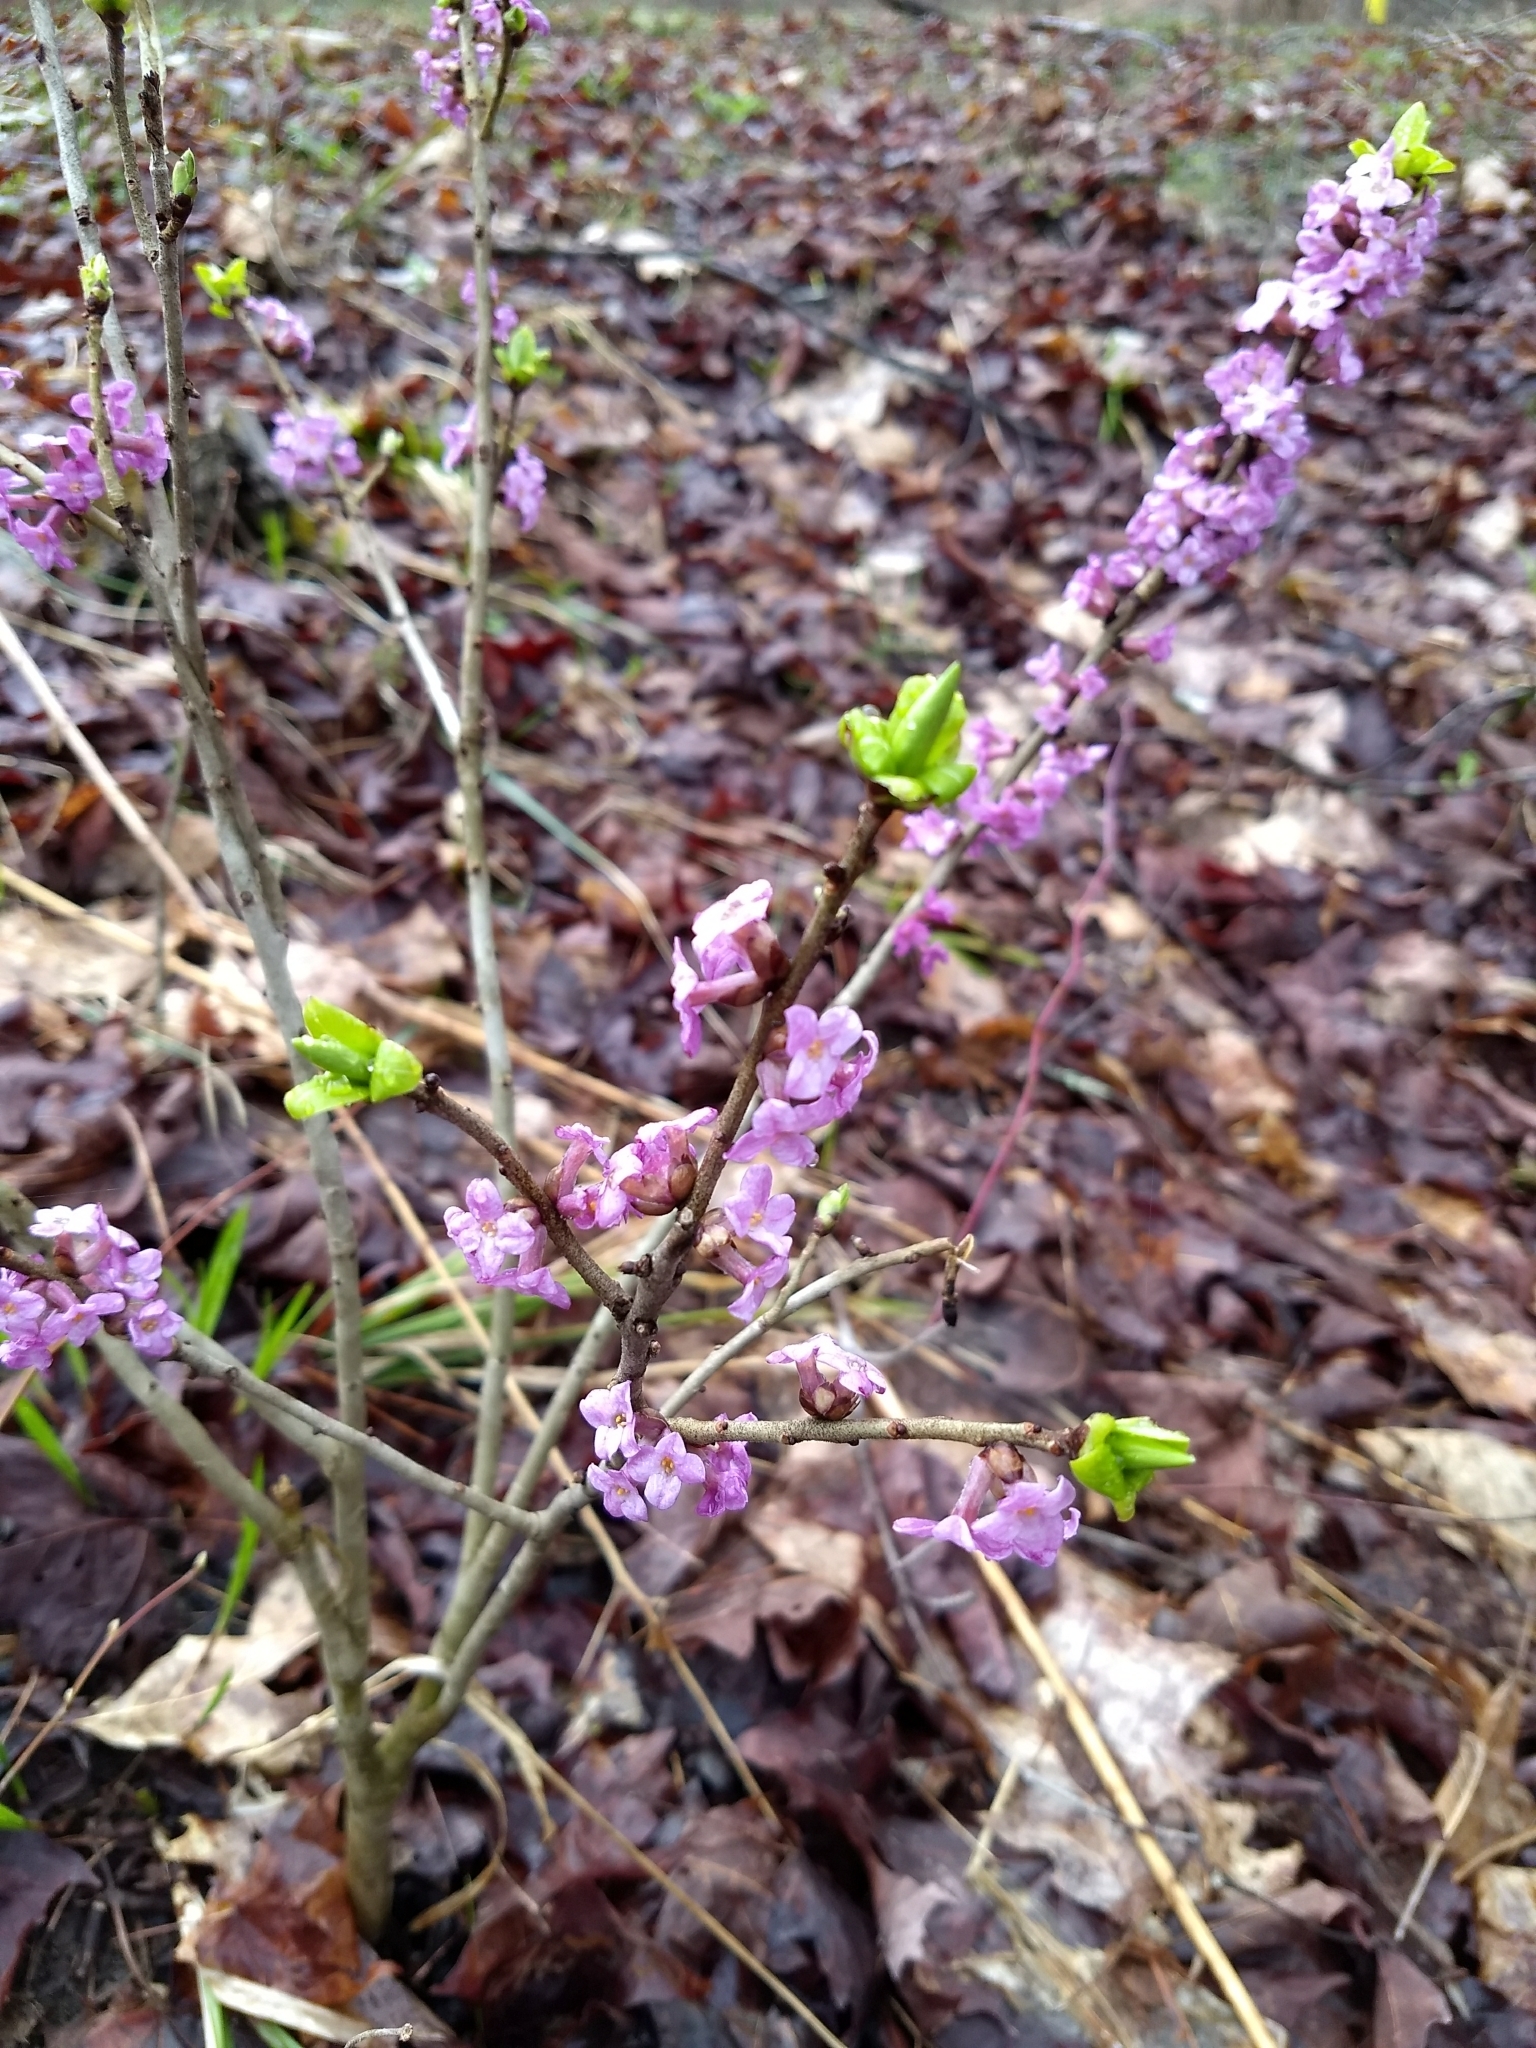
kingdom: Plantae
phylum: Tracheophyta
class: Magnoliopsida
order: Malvales
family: Thymelaeaceae
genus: Daphne
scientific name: Daphne mezereum
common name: Mezereon
